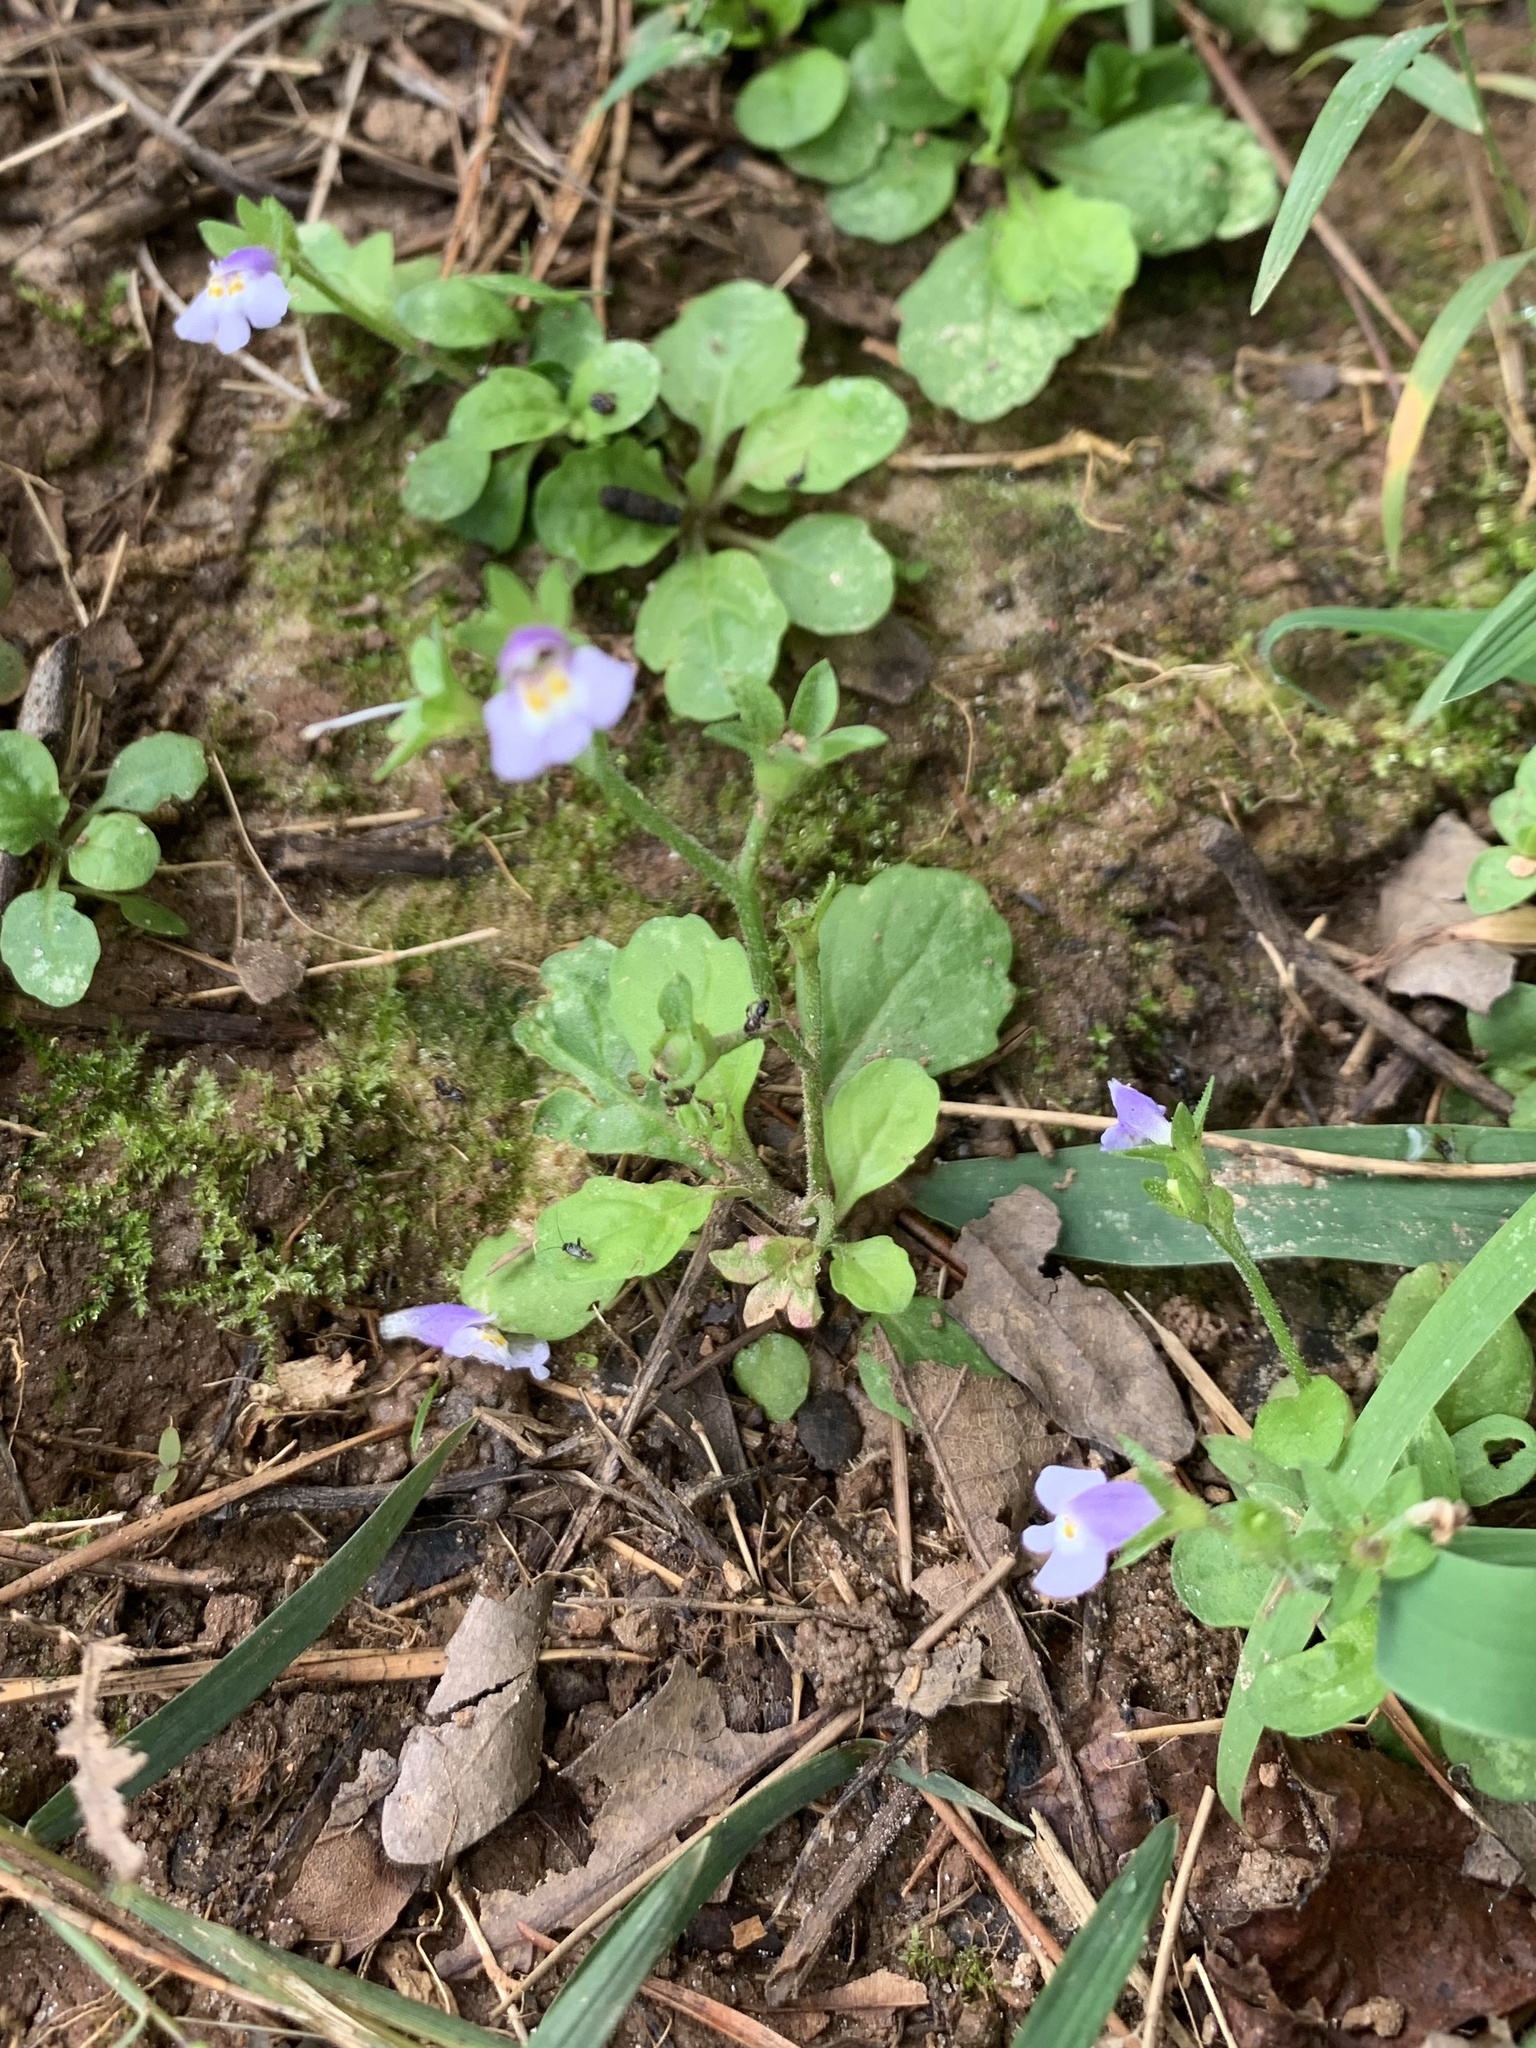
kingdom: Plantae
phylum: Tracheophyta
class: Magnoliopsida
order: Lamiales
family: Mazaceae
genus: Mazus
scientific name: Mazus pumilus
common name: Japanese mazus
